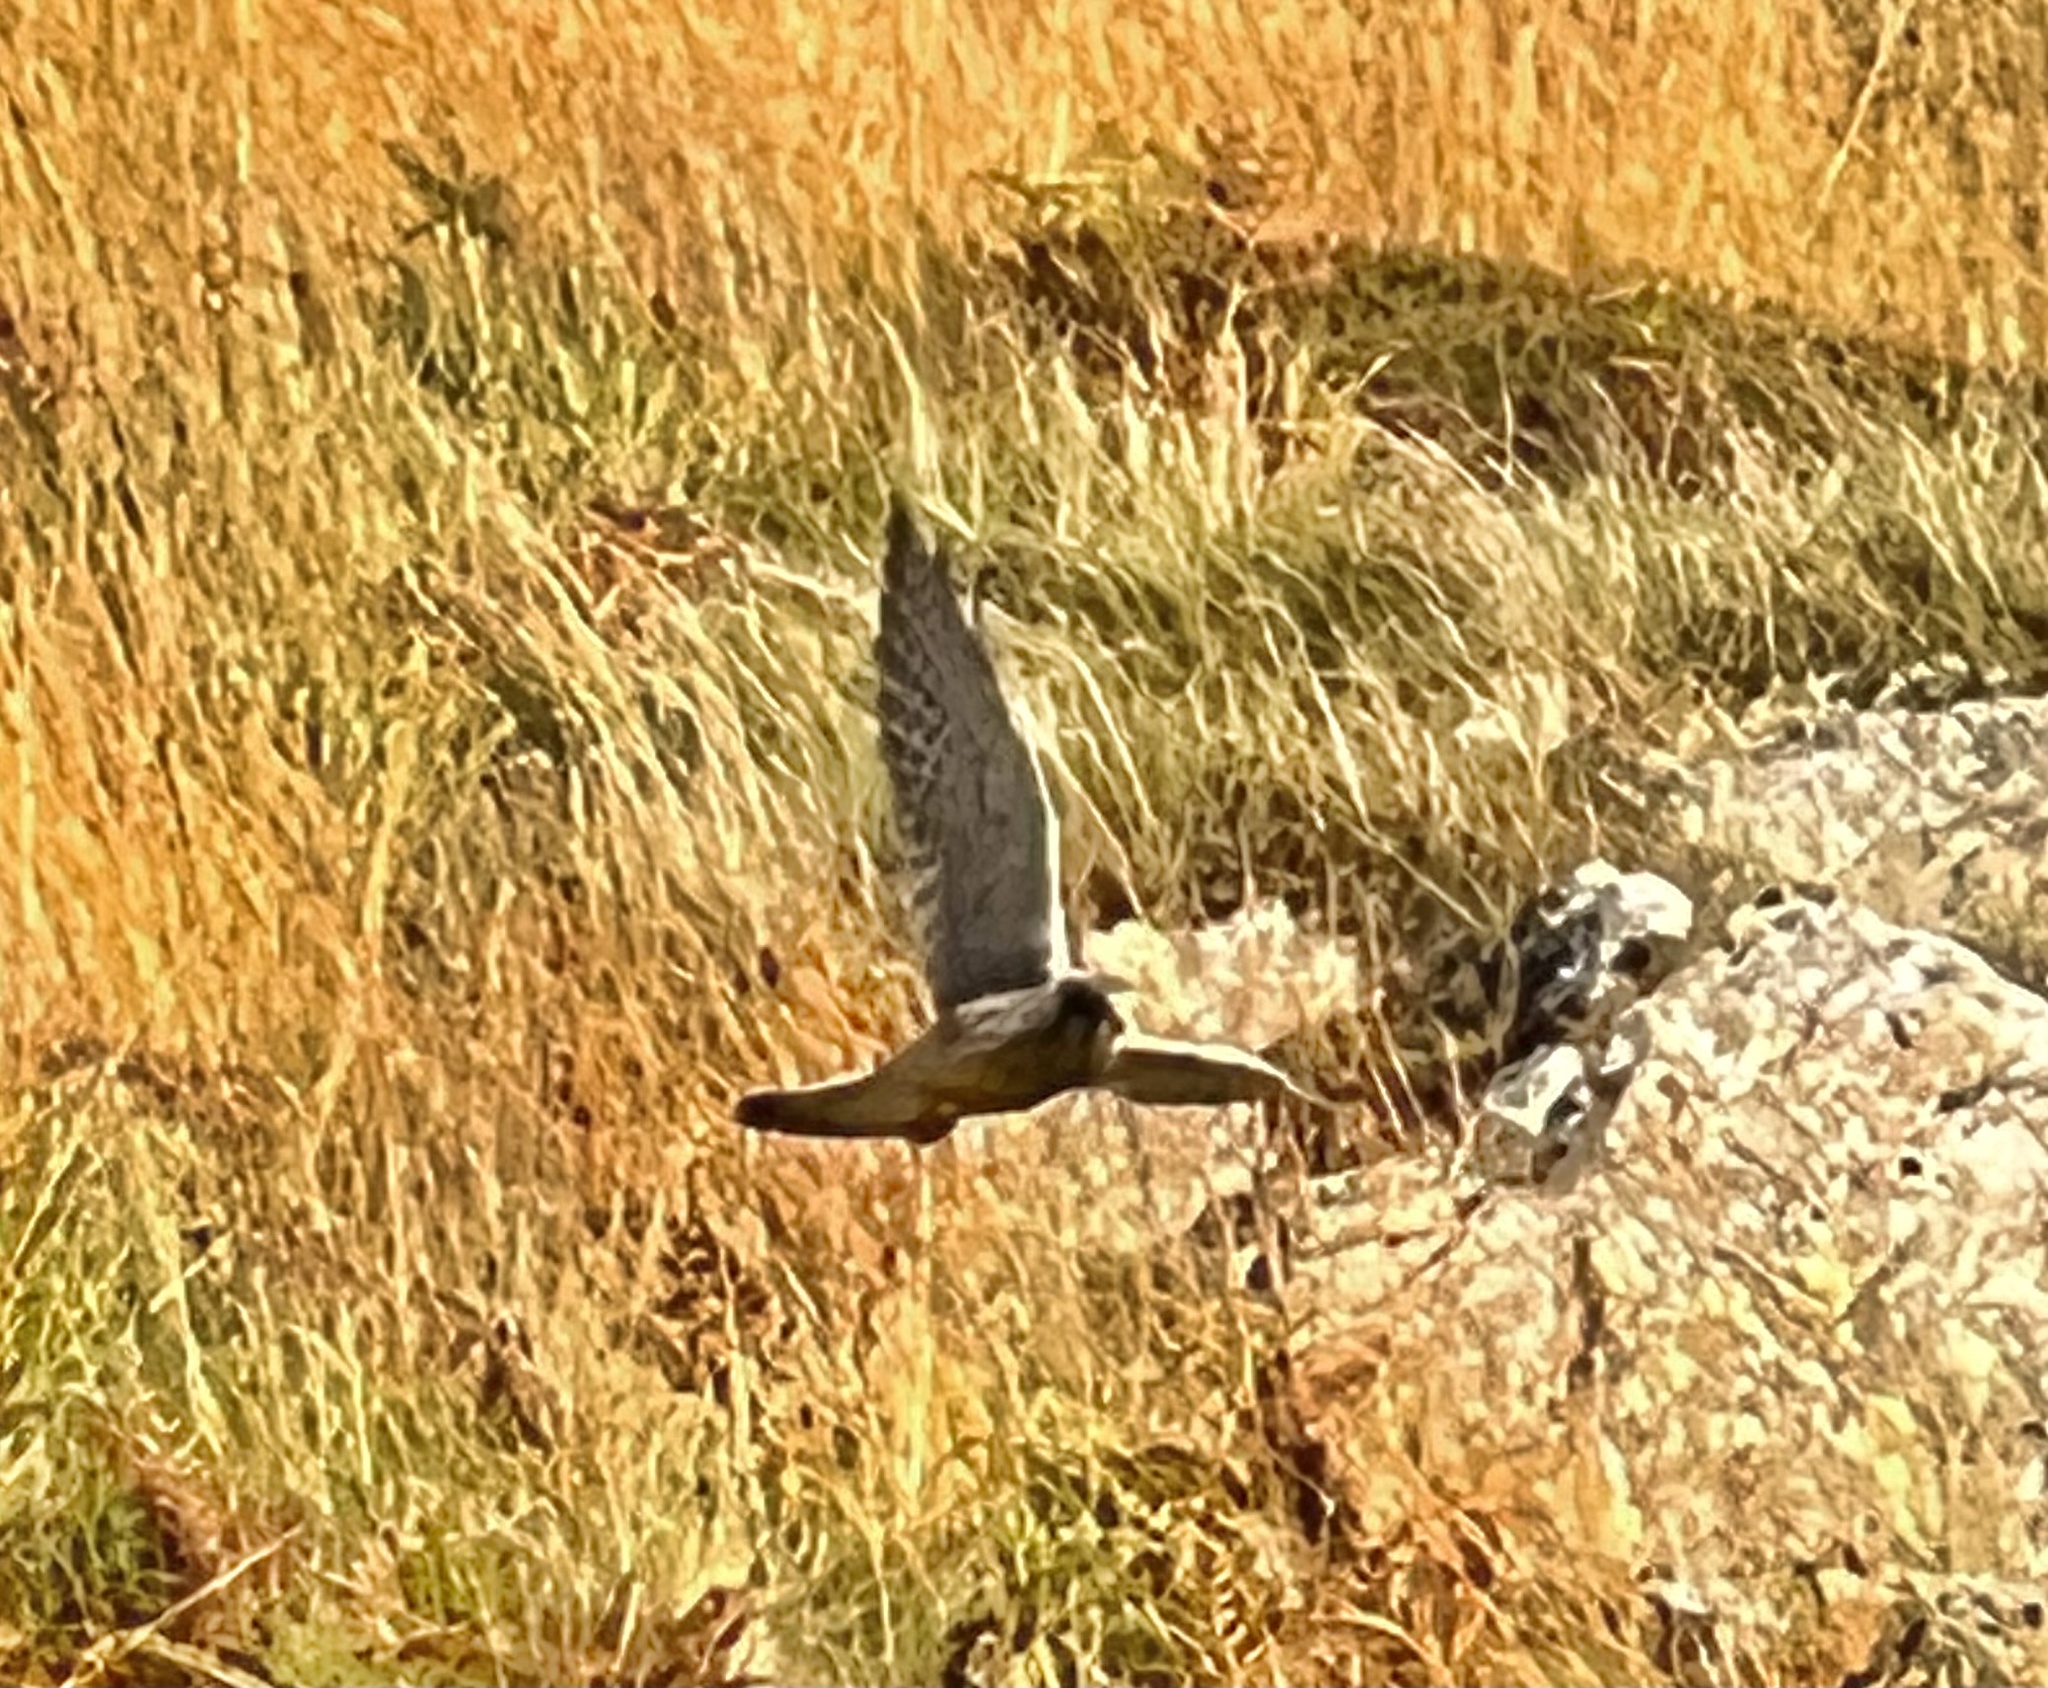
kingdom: Animalia
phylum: Chordata
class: Aves
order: Falconiformes
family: Falconidae
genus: Falco
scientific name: Falco tinnunculus
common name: Common kestrel
